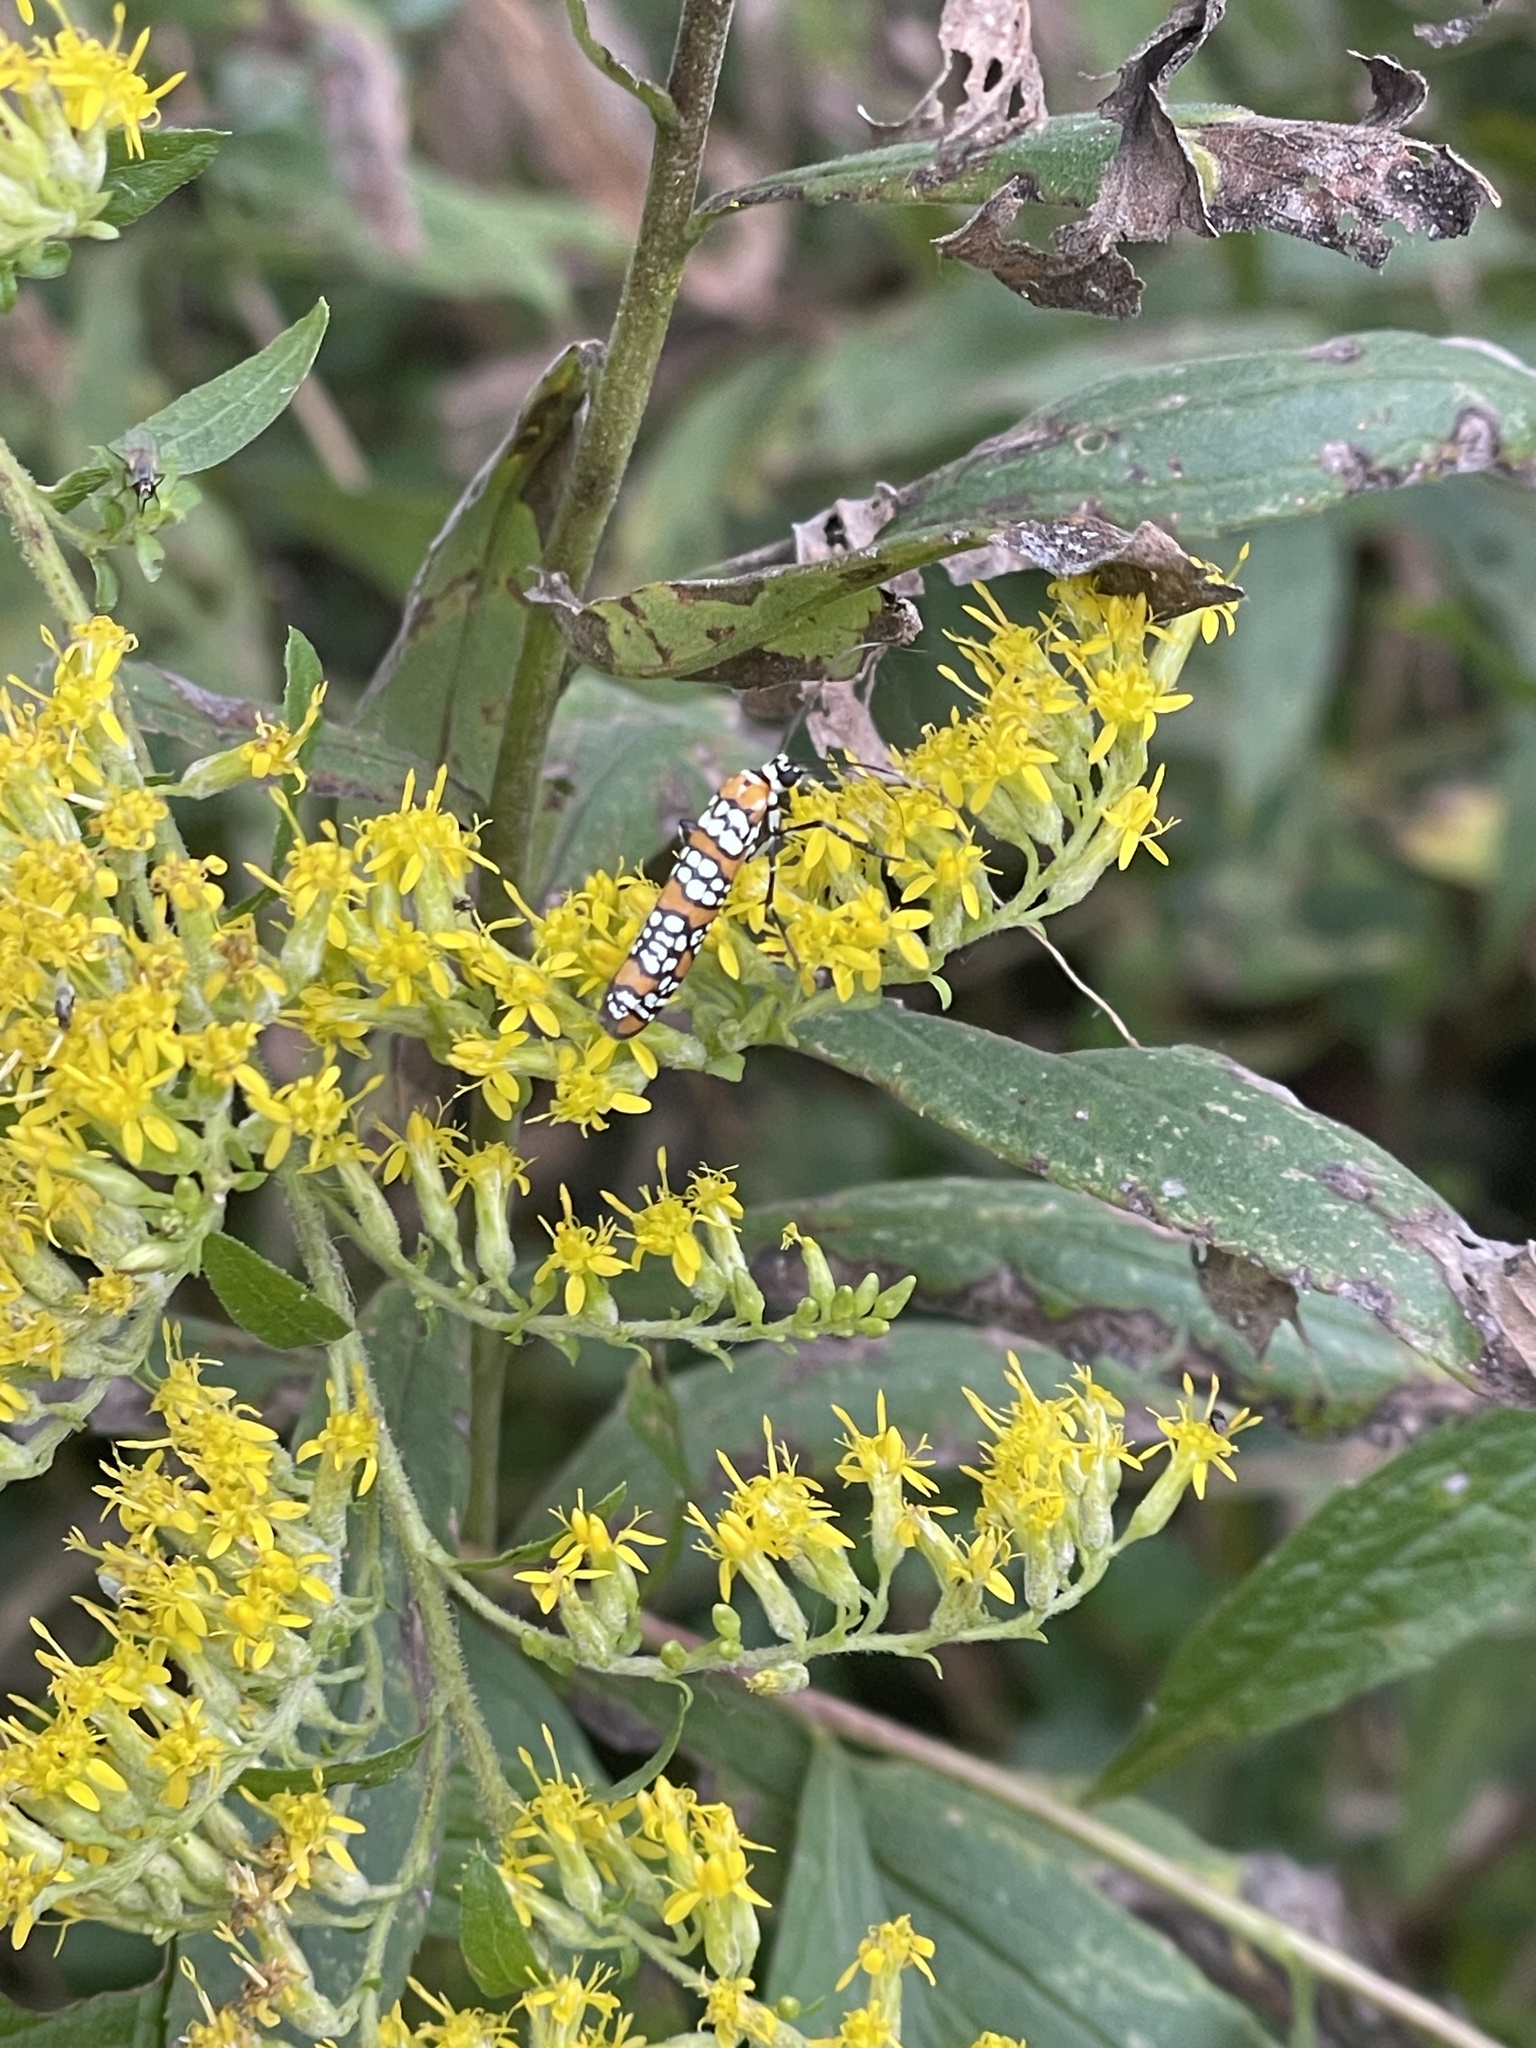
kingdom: Animalia
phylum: Arthropoda
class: Insecta
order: Lepidoptera
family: Attevidae
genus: Atteva
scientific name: Atteva punctella
